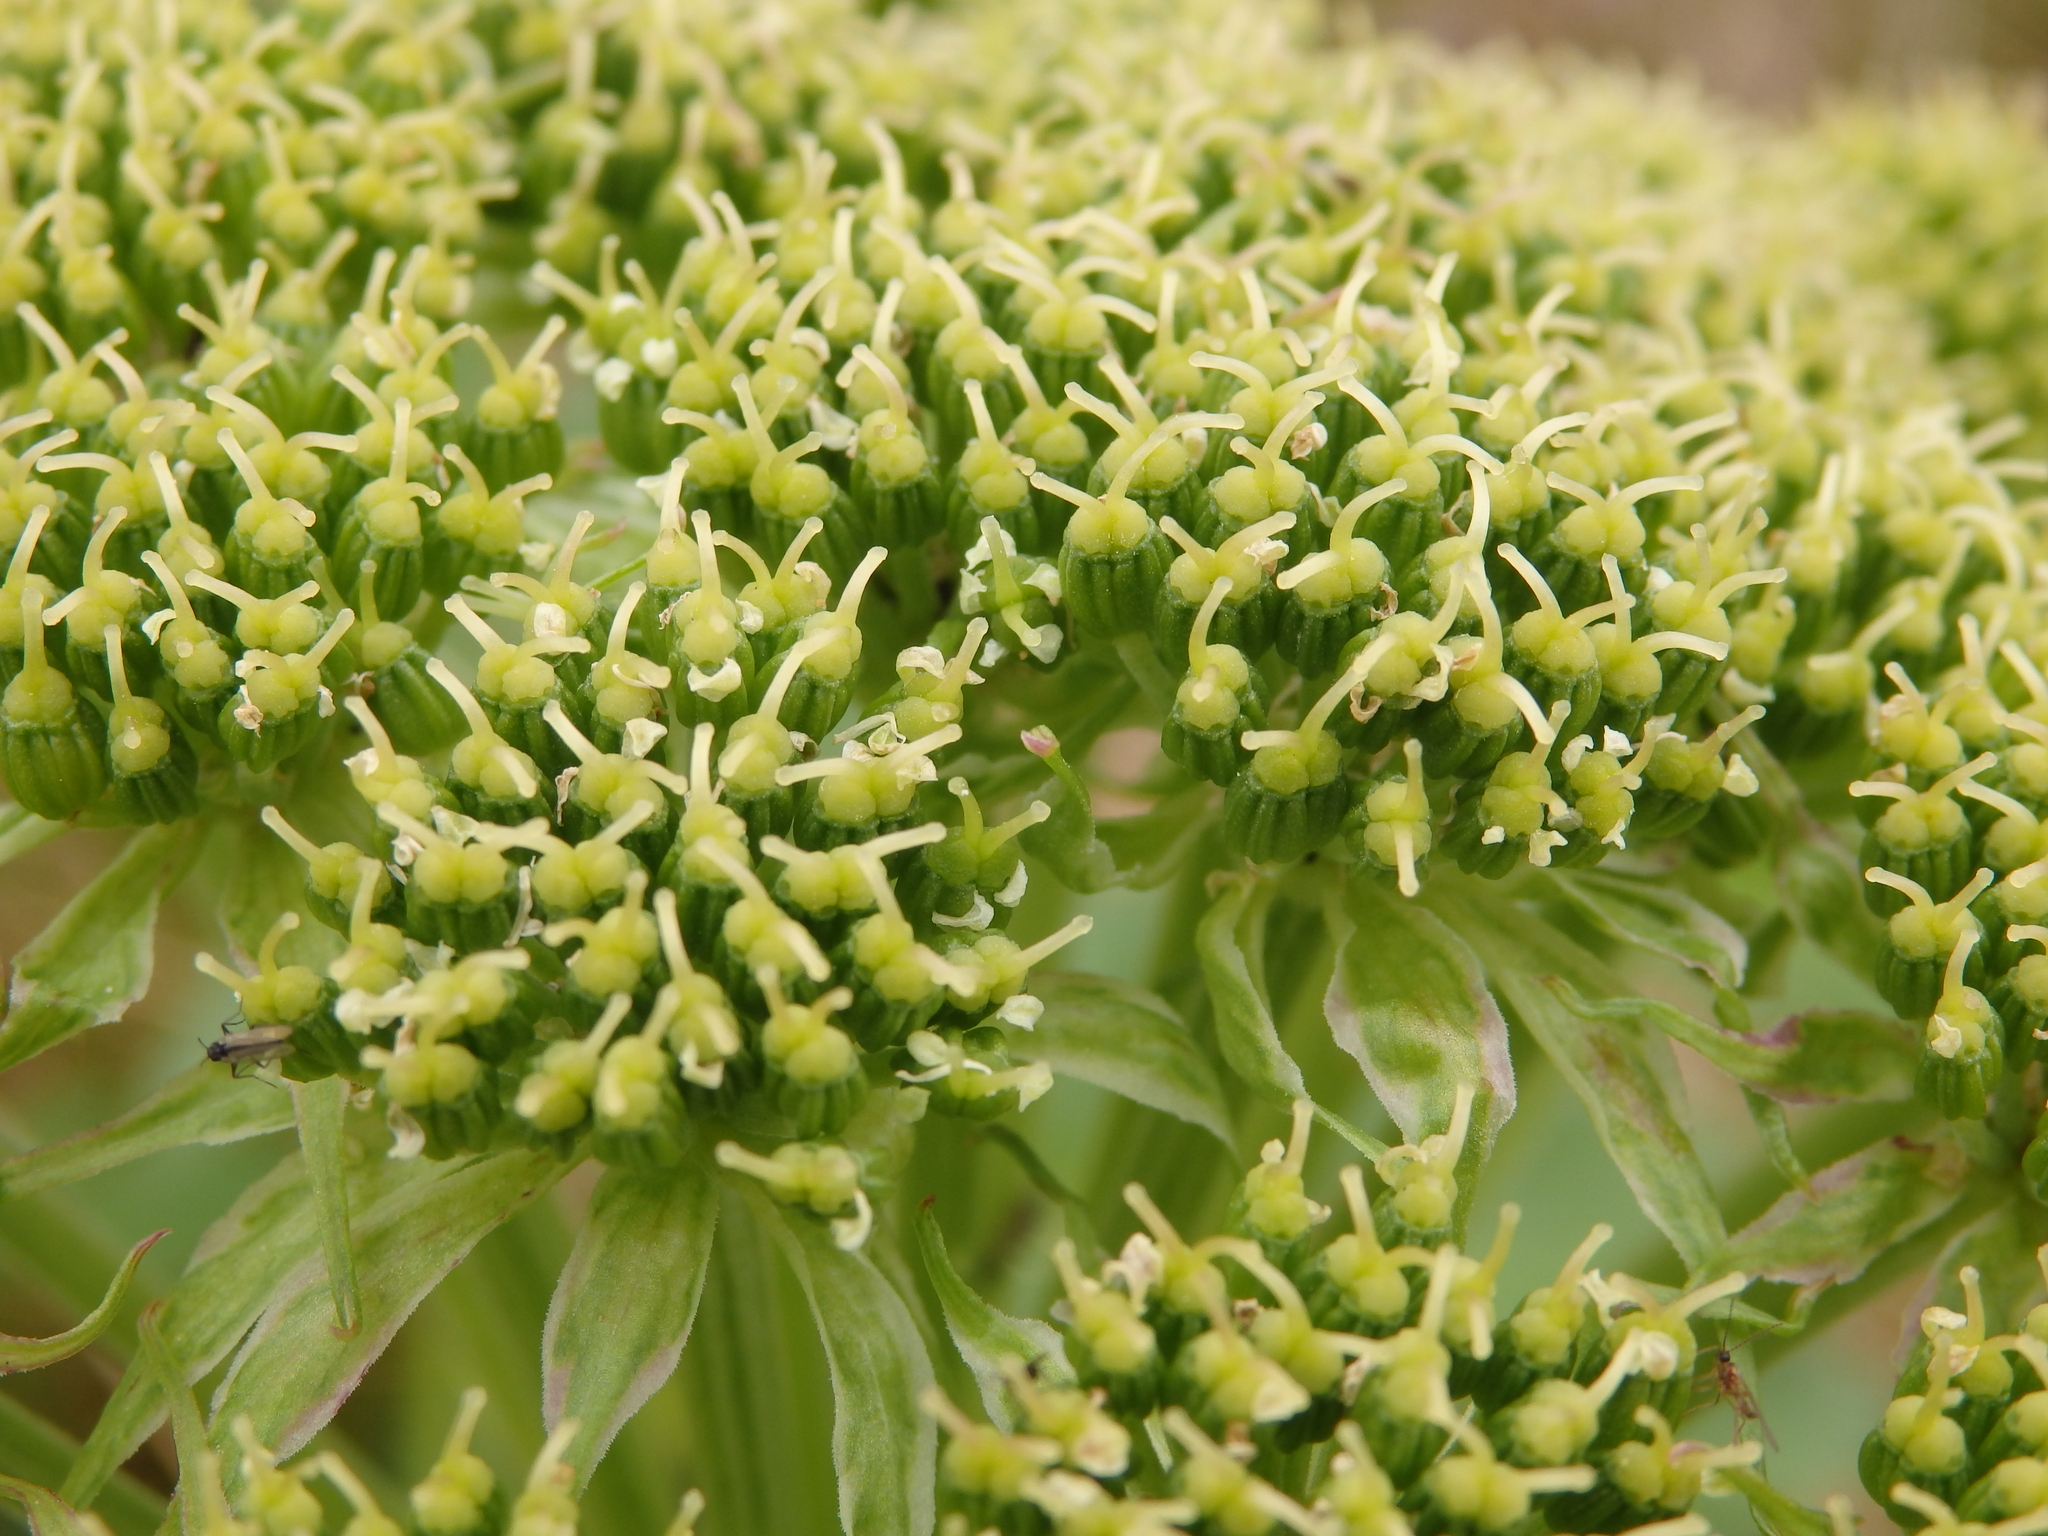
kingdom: Plantae
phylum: Tracheophyta
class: Magnoliopsida
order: Apiales
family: Apiaceae
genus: Angelica
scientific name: Angelica gmelinii
